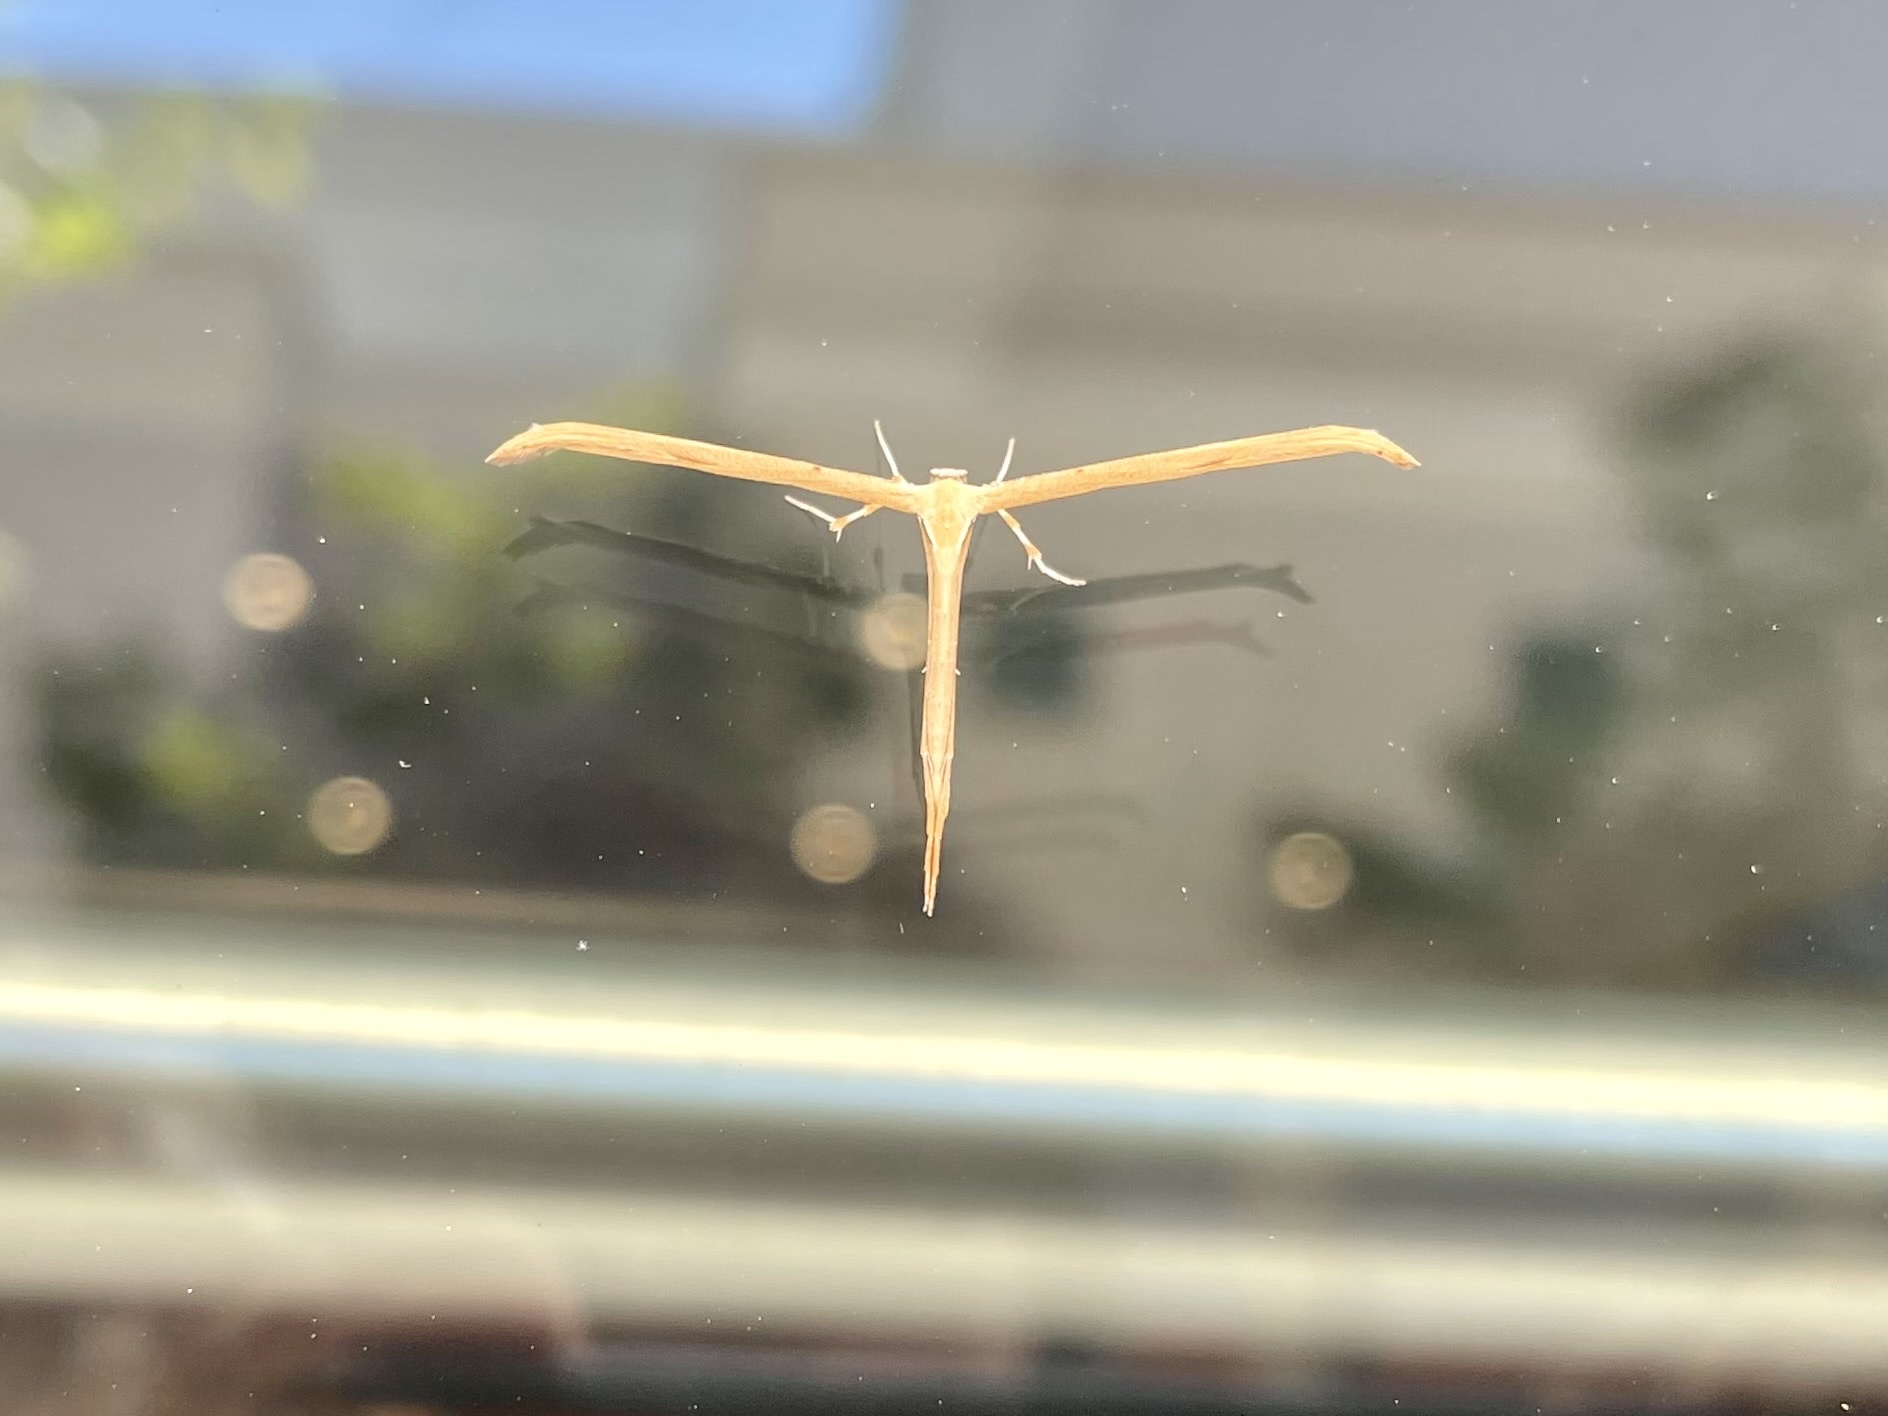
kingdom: Animalia
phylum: Arthropoda
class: Insecta
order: Lepidoptera
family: Pterophoridae
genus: Emmelina
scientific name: Emmelina monodactyla
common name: Common plume
